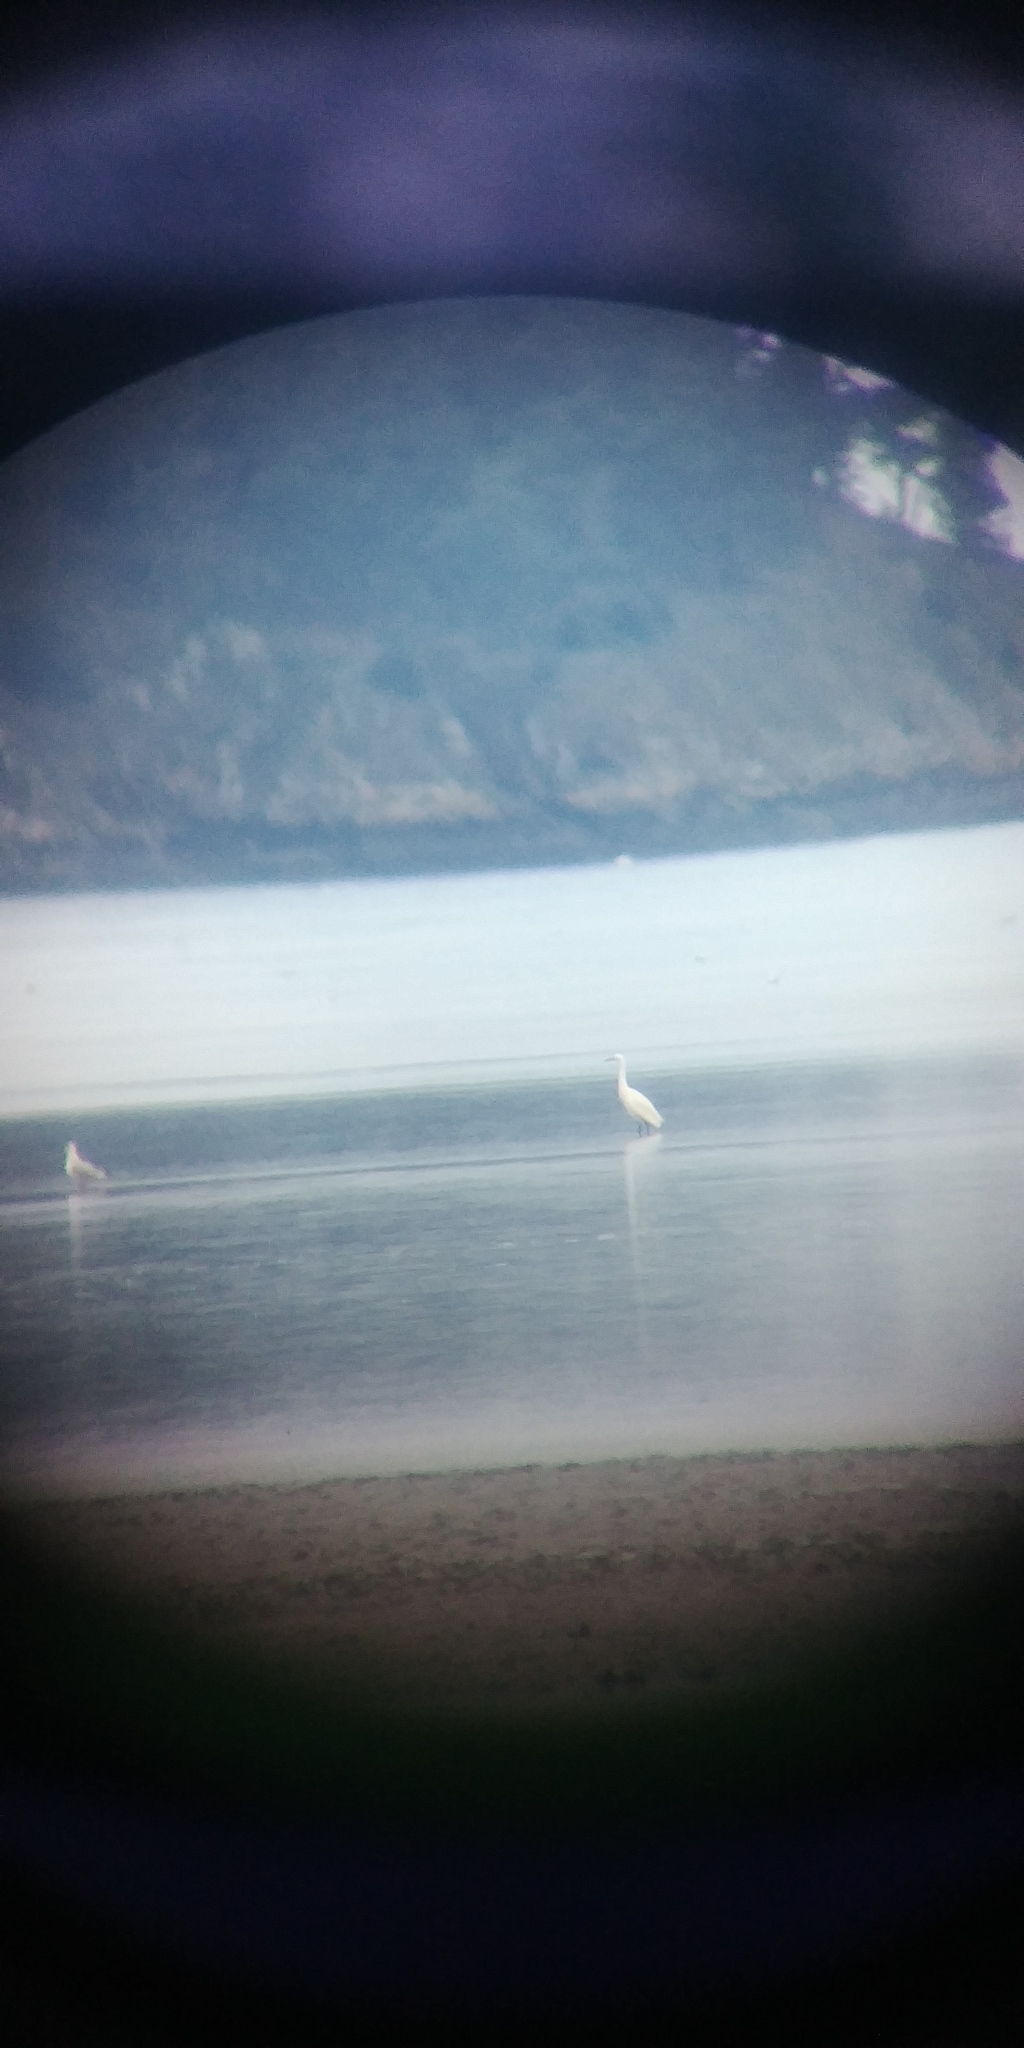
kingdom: Animalia
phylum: Chordata
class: Aves
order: Pelecaniformes
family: Ardeidae
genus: Egretta
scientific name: Egretta garzetta
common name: Little egret
